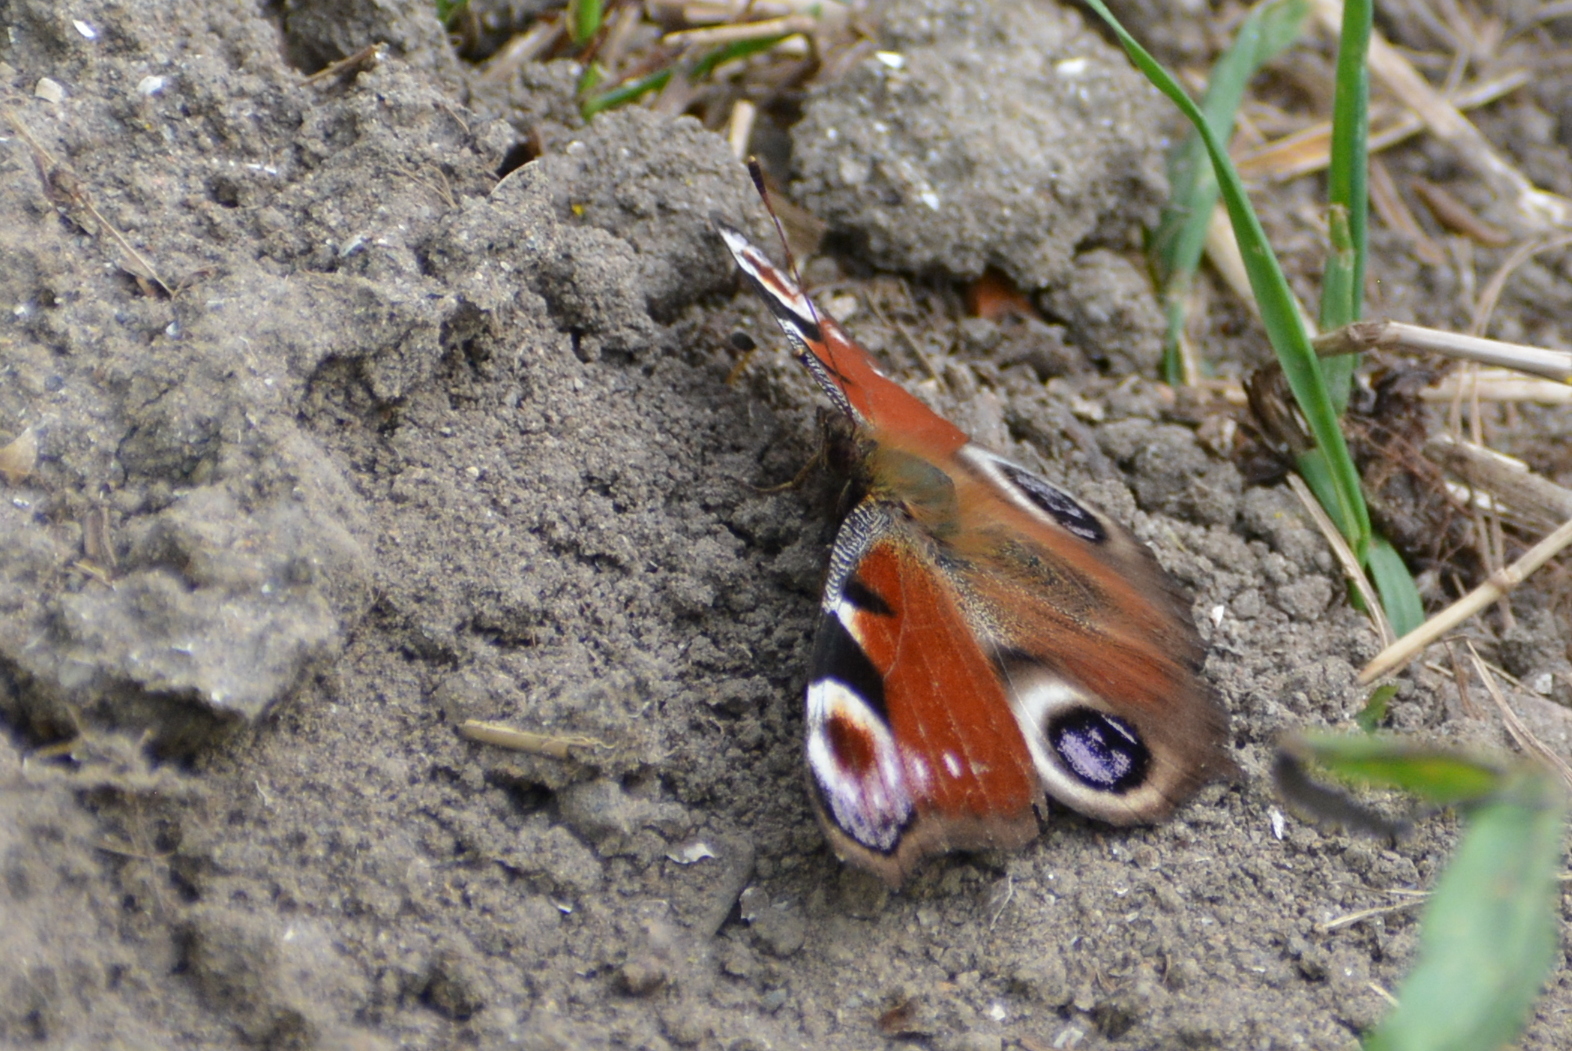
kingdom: Animalia
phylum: Arthropoda
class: Insecta
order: Lepidoptera
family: Nymphalidae
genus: Aglais
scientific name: Aglais io
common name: Peacock
